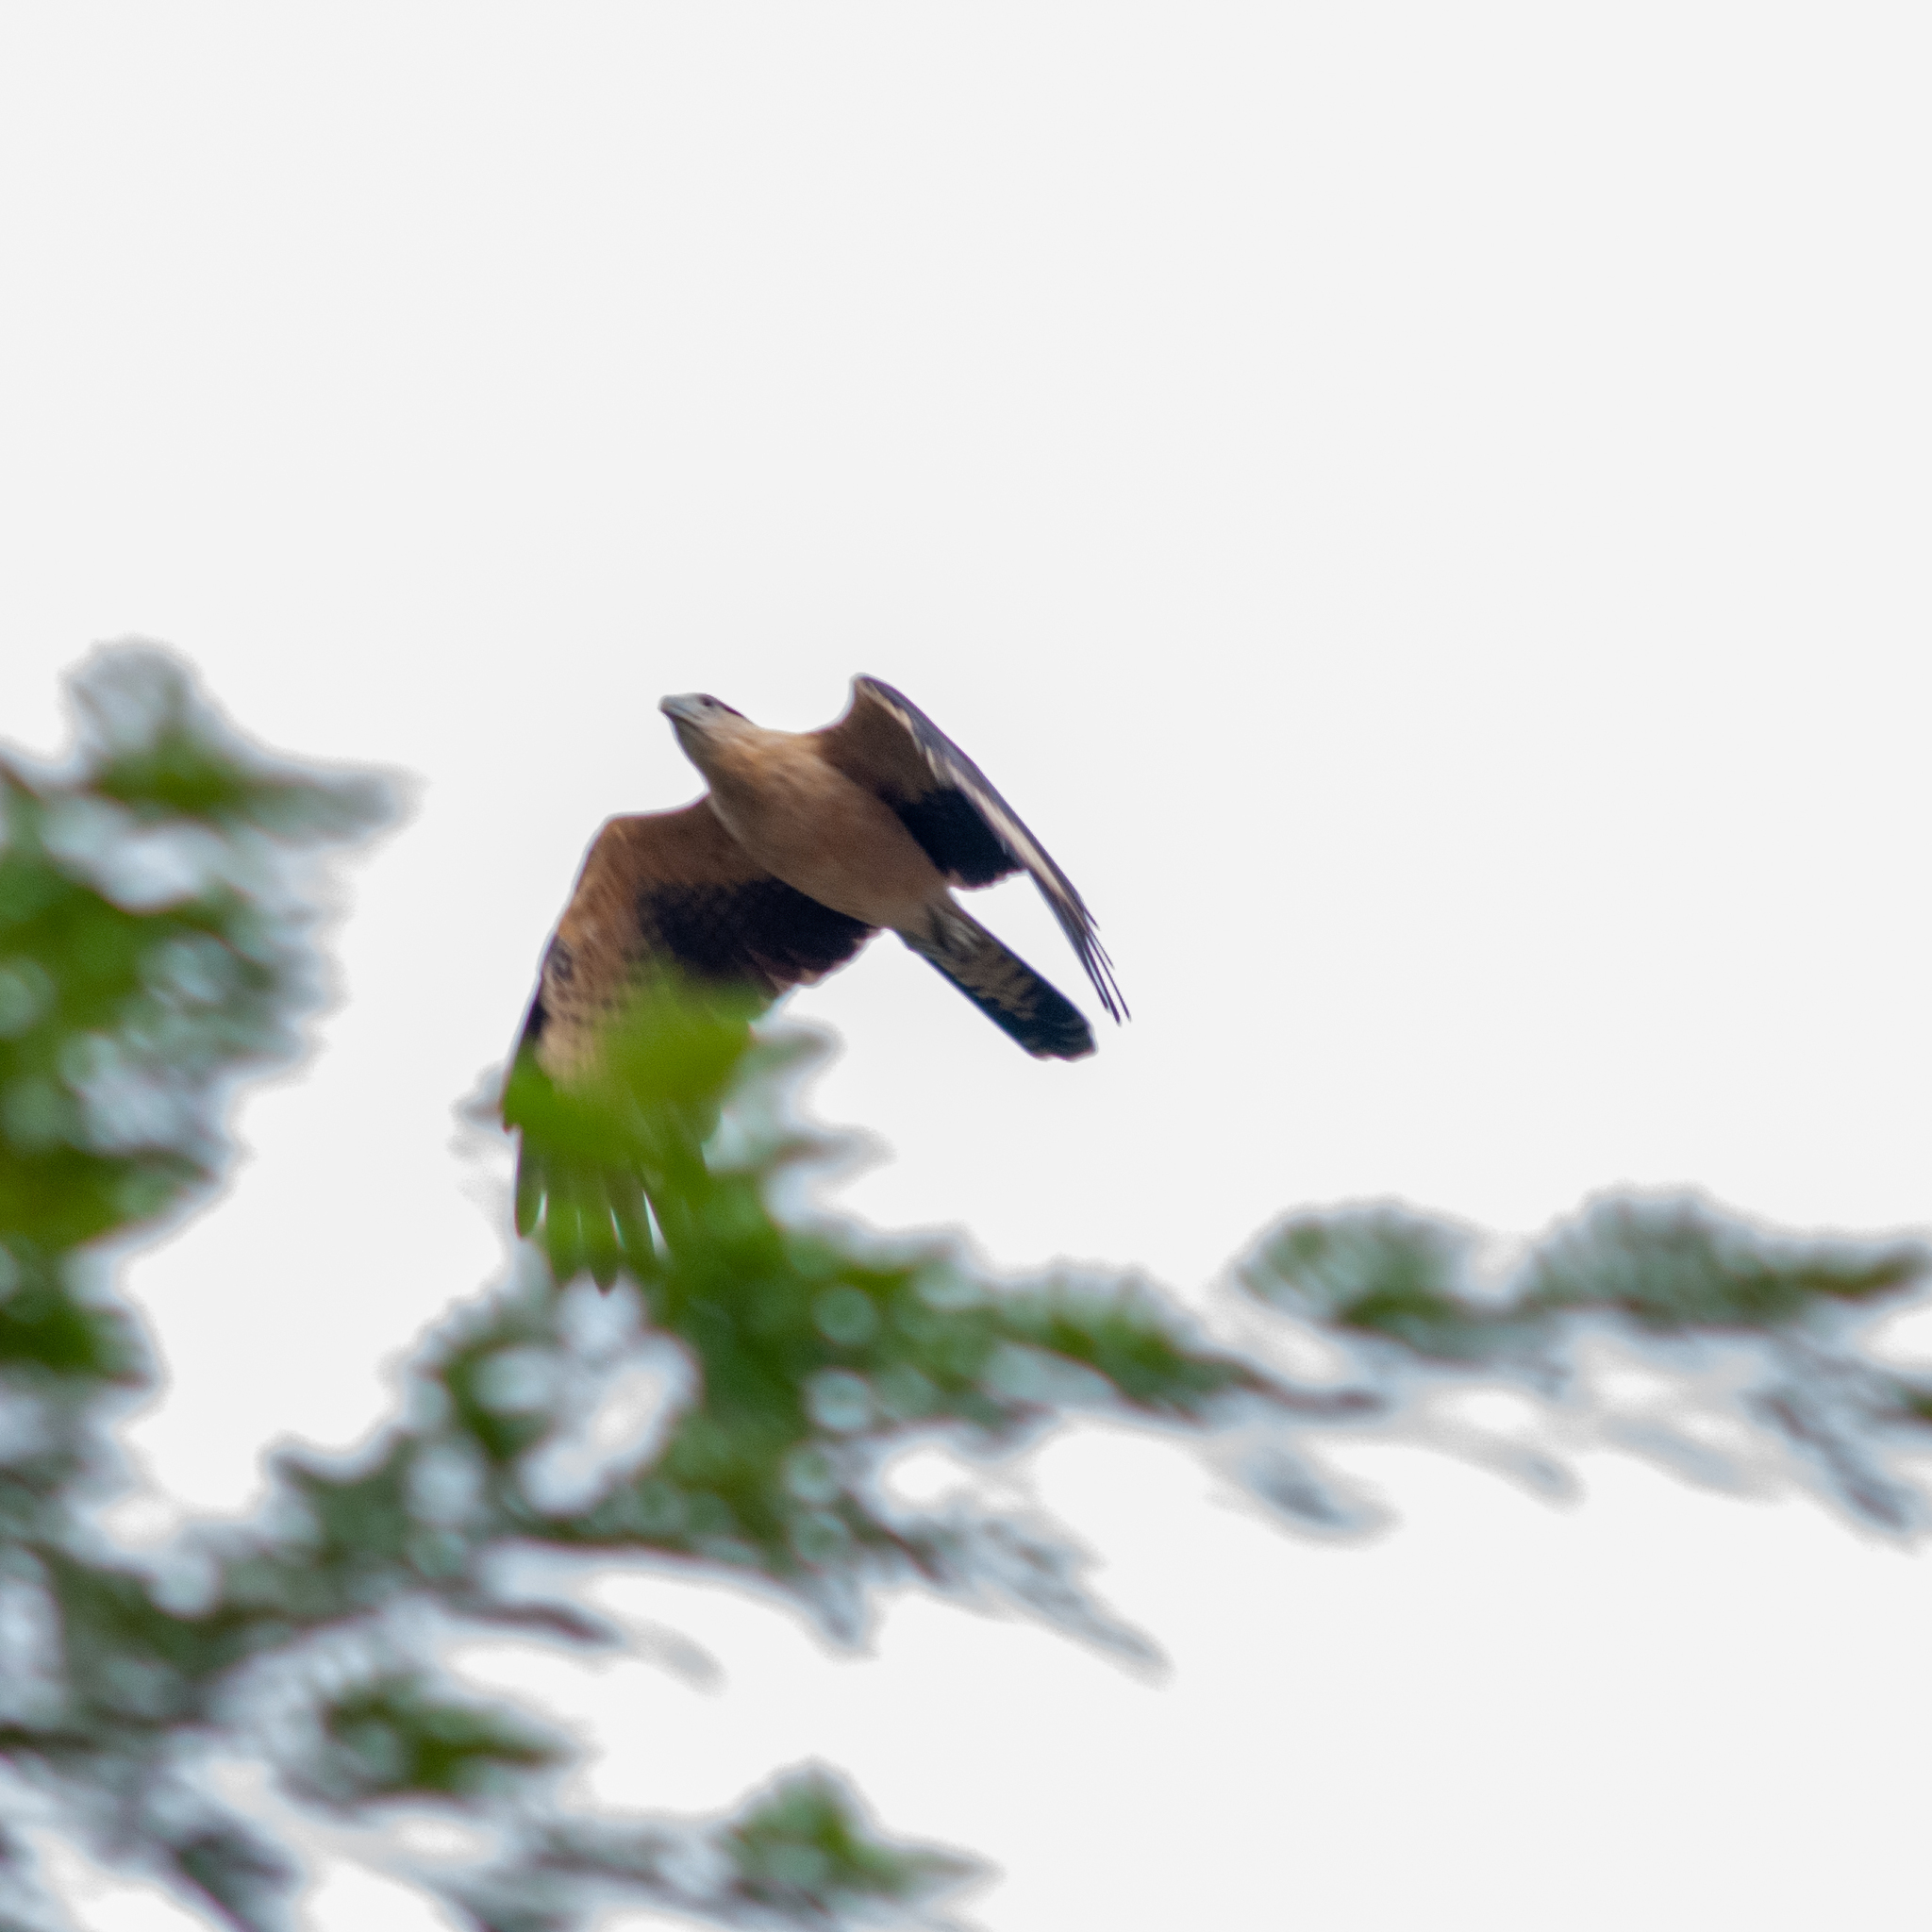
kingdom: Animalia
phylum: Chordata
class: Aves
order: Falconiformes
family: Falconidae
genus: Daptrius
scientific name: Daptrius
